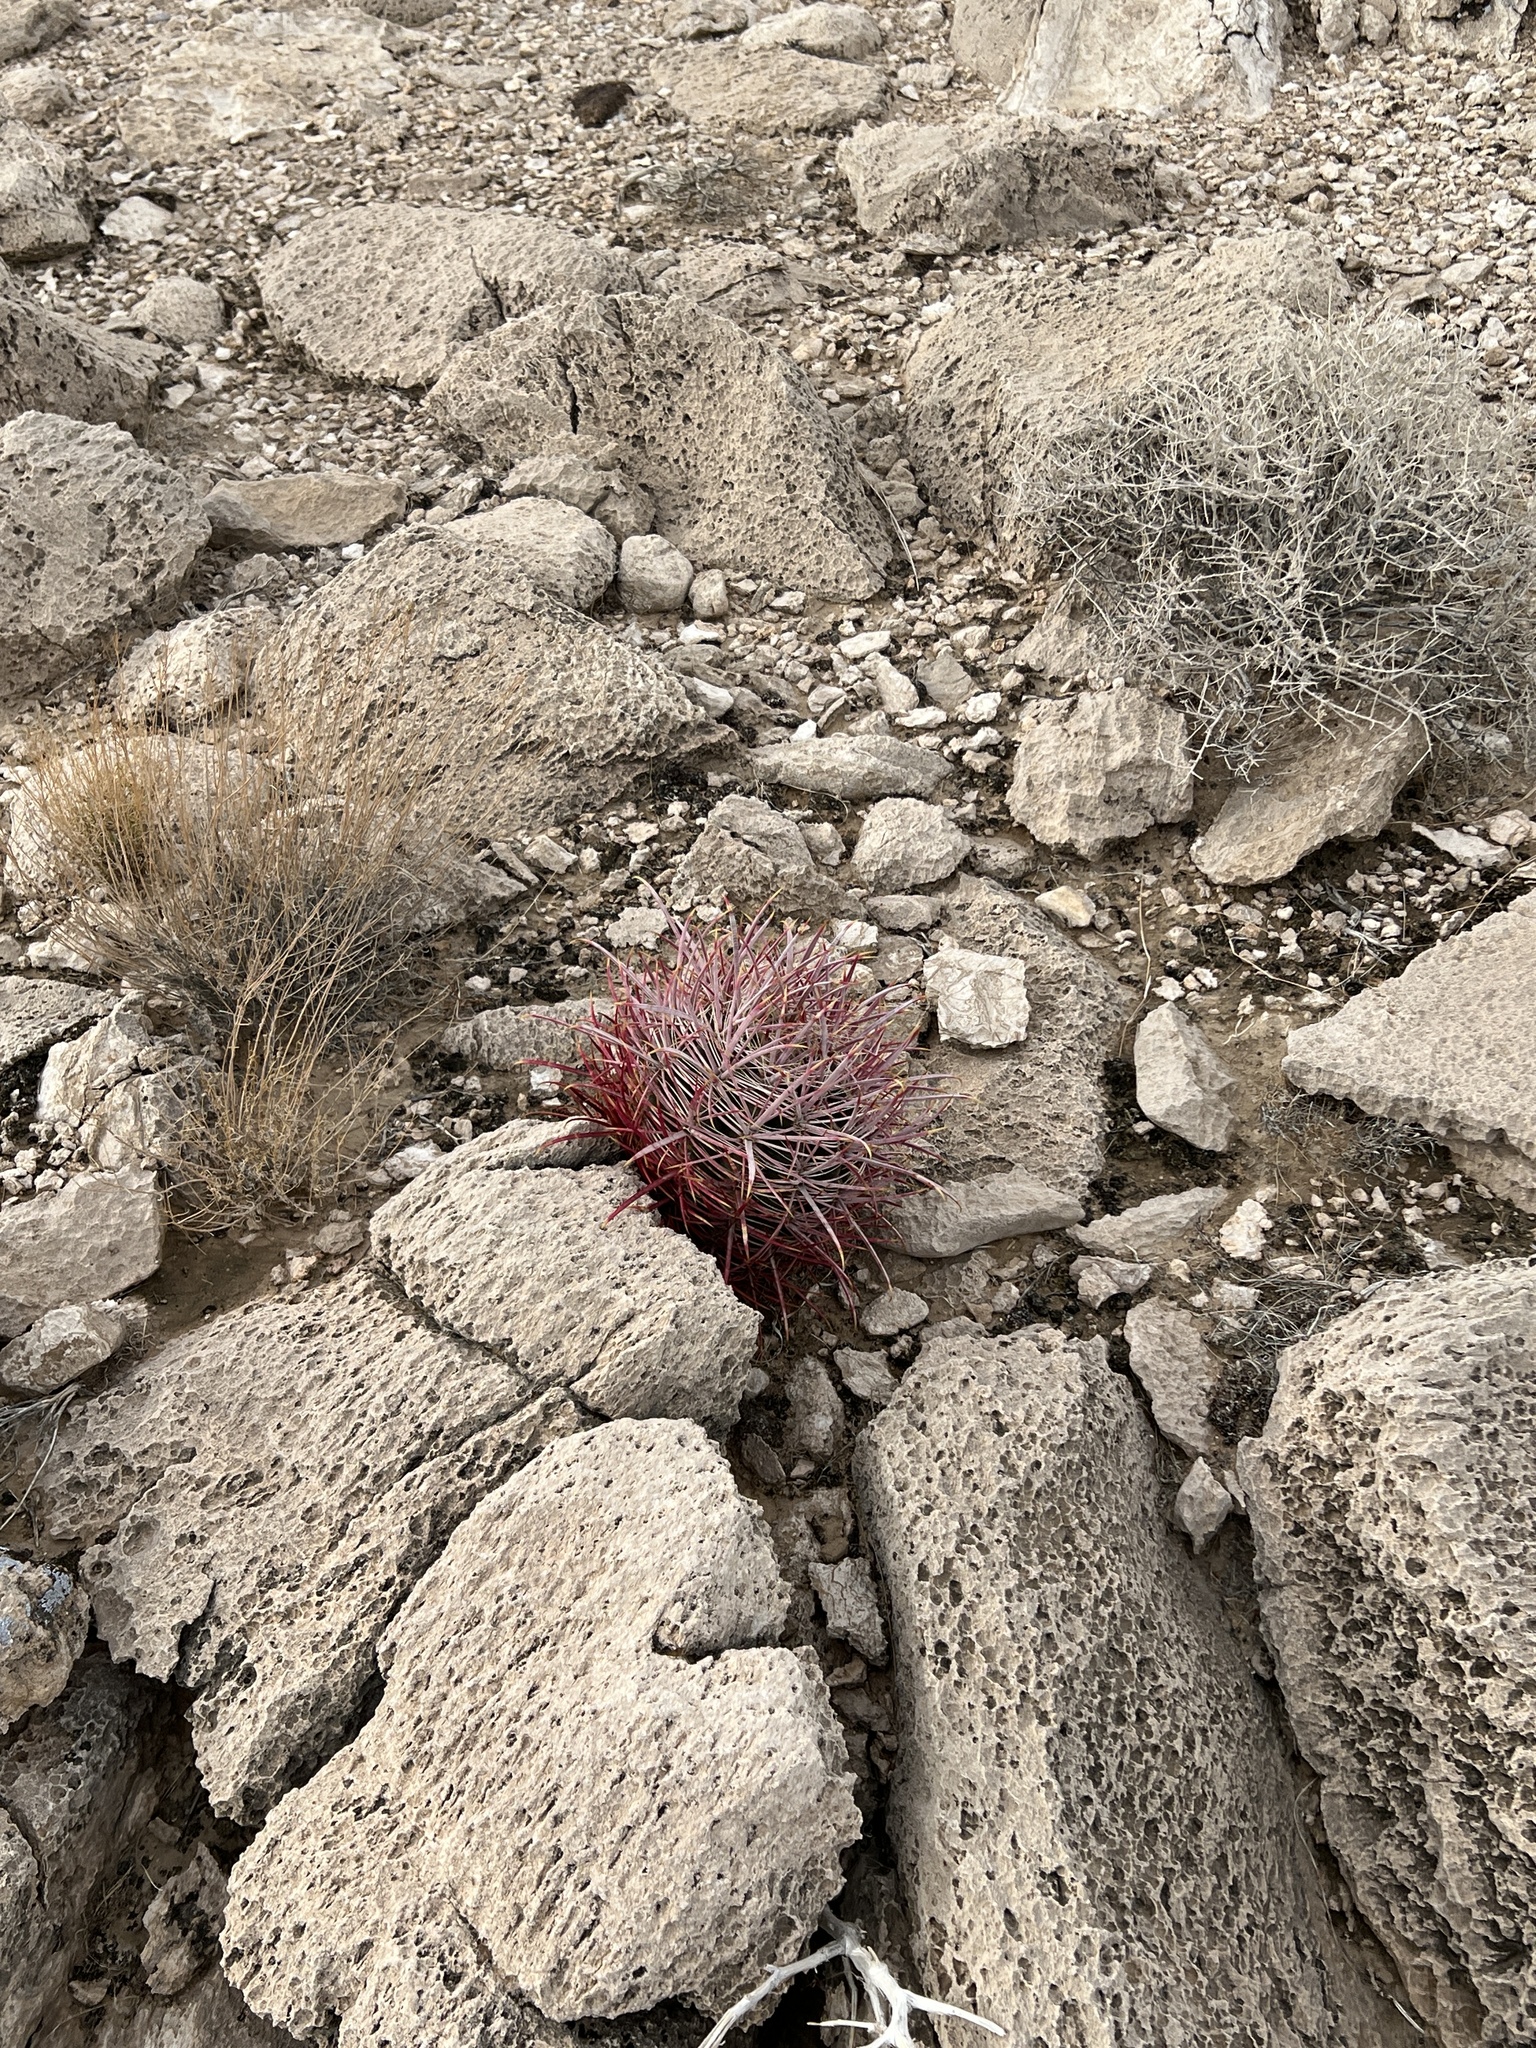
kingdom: Plantae
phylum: Tracheophyta
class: Magnoliopsida
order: Caryophyllales
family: Cactaceae
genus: Ferocactus
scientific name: Ferocactus cylindraceus
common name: California barrel cactus
